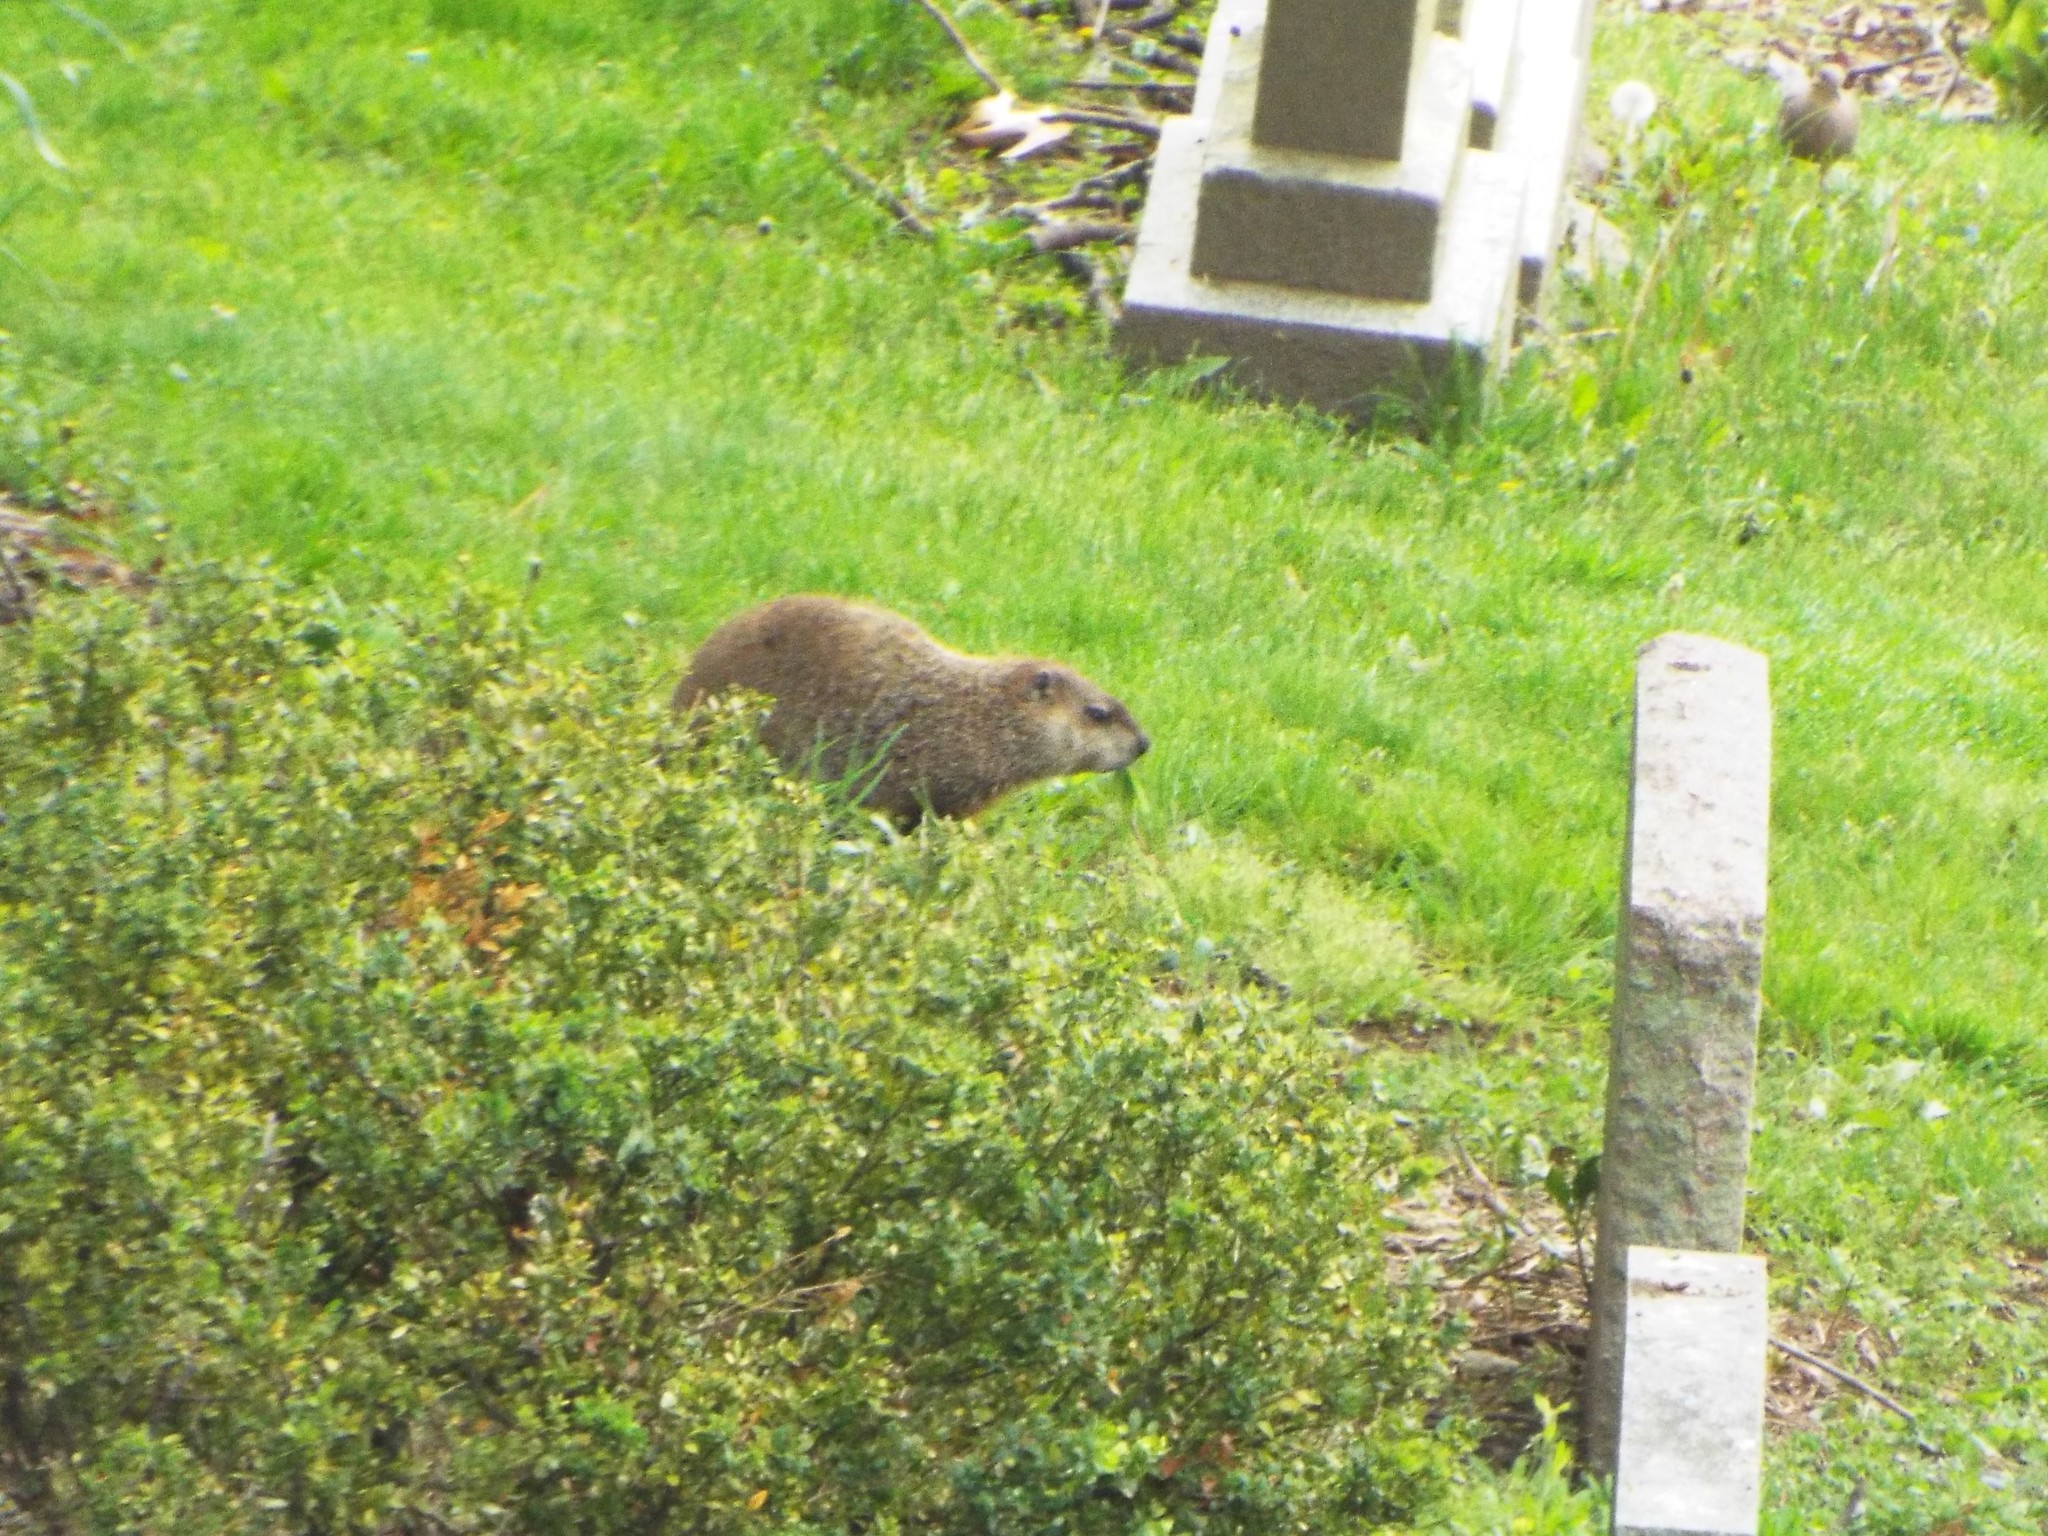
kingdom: Animalia
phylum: Chordata
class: Mammalia
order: Rodentia
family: Sciuridae
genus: Marmota
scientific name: Marmota monax
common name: Groundhog
